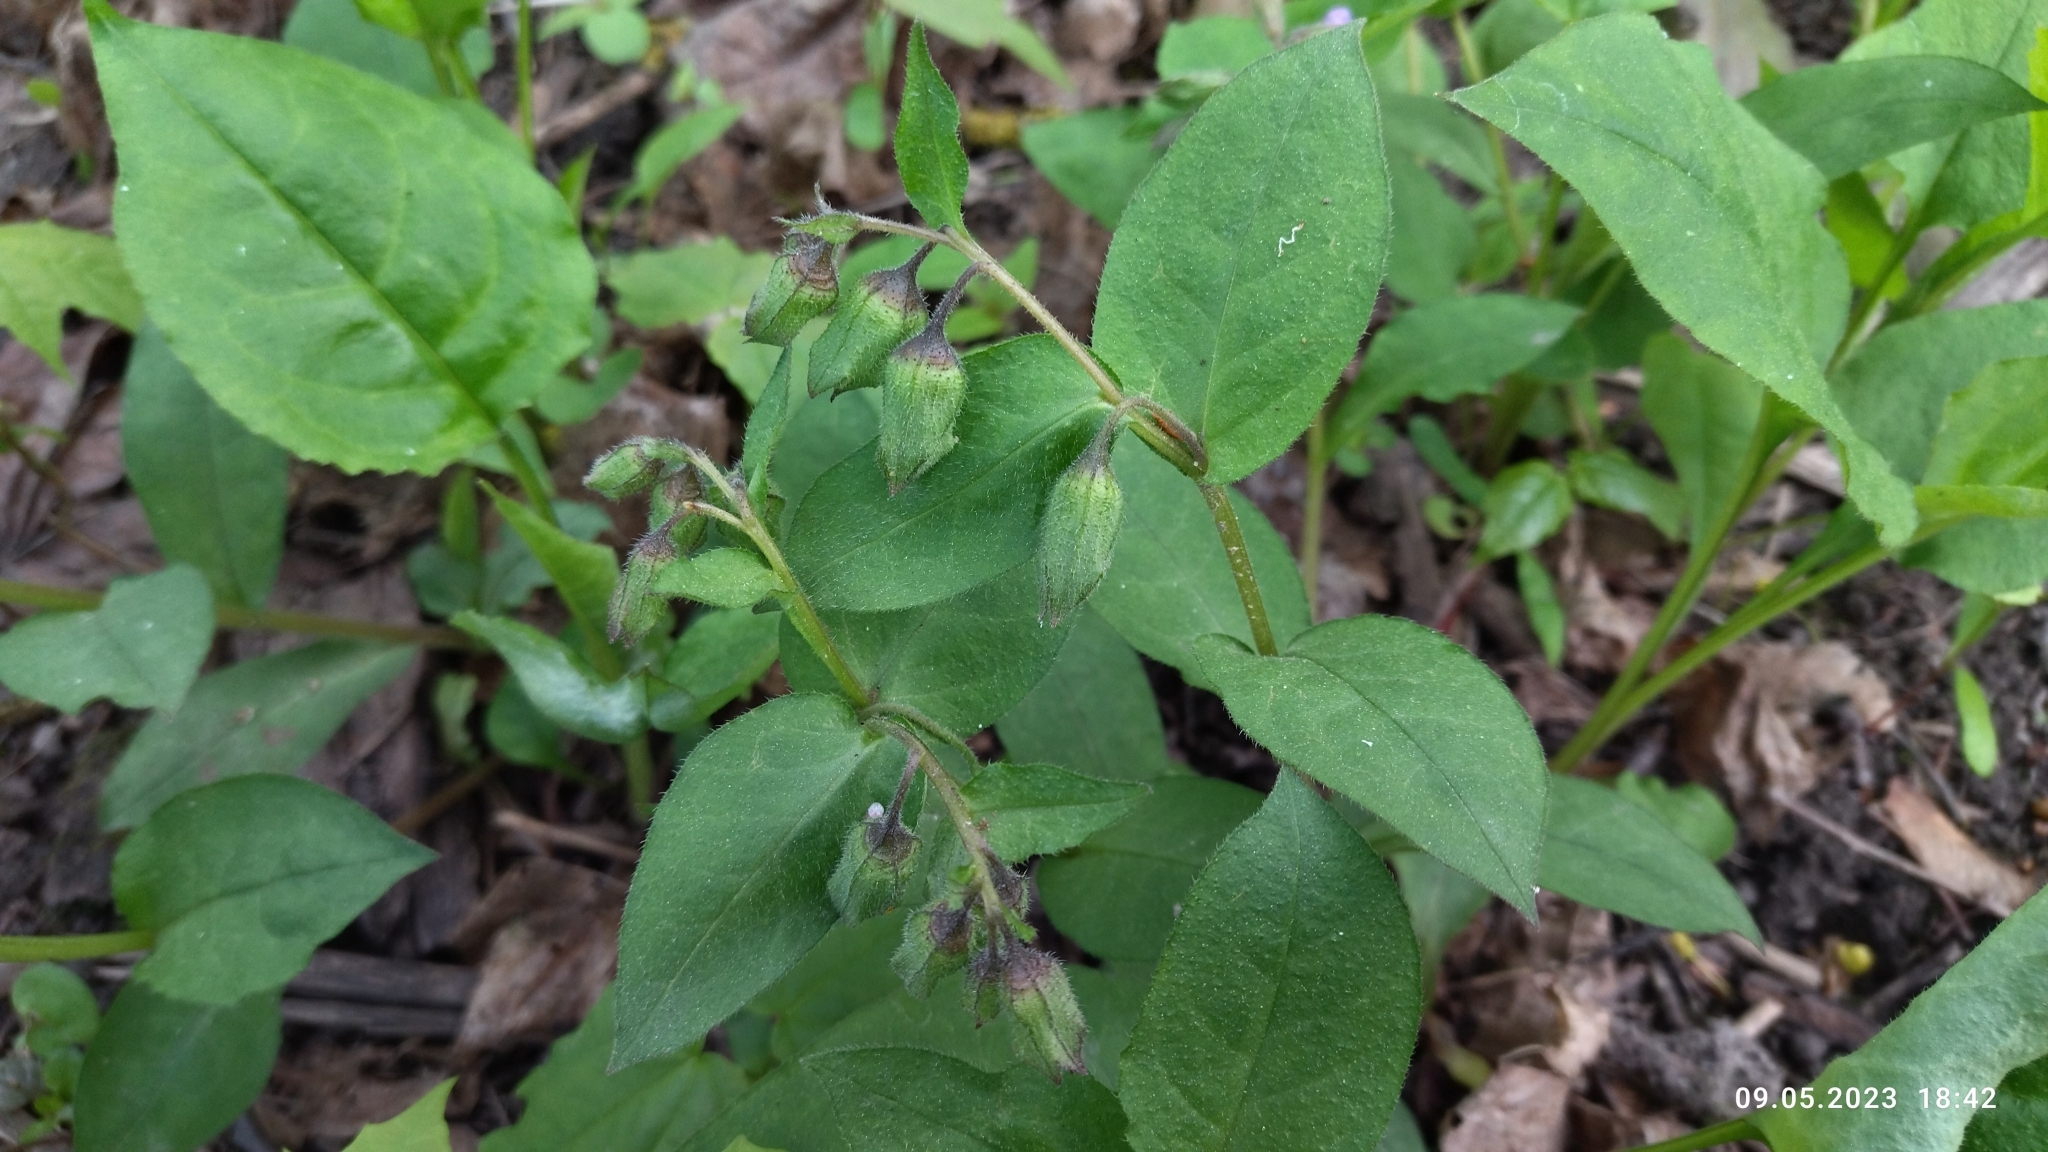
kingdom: Plantae
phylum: Tracheophyta
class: Magnoliopsida
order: Boraginales
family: Boraginaceae
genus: Pulmonaria
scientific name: Pulmonaria obscura
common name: Suffolk lungwort
